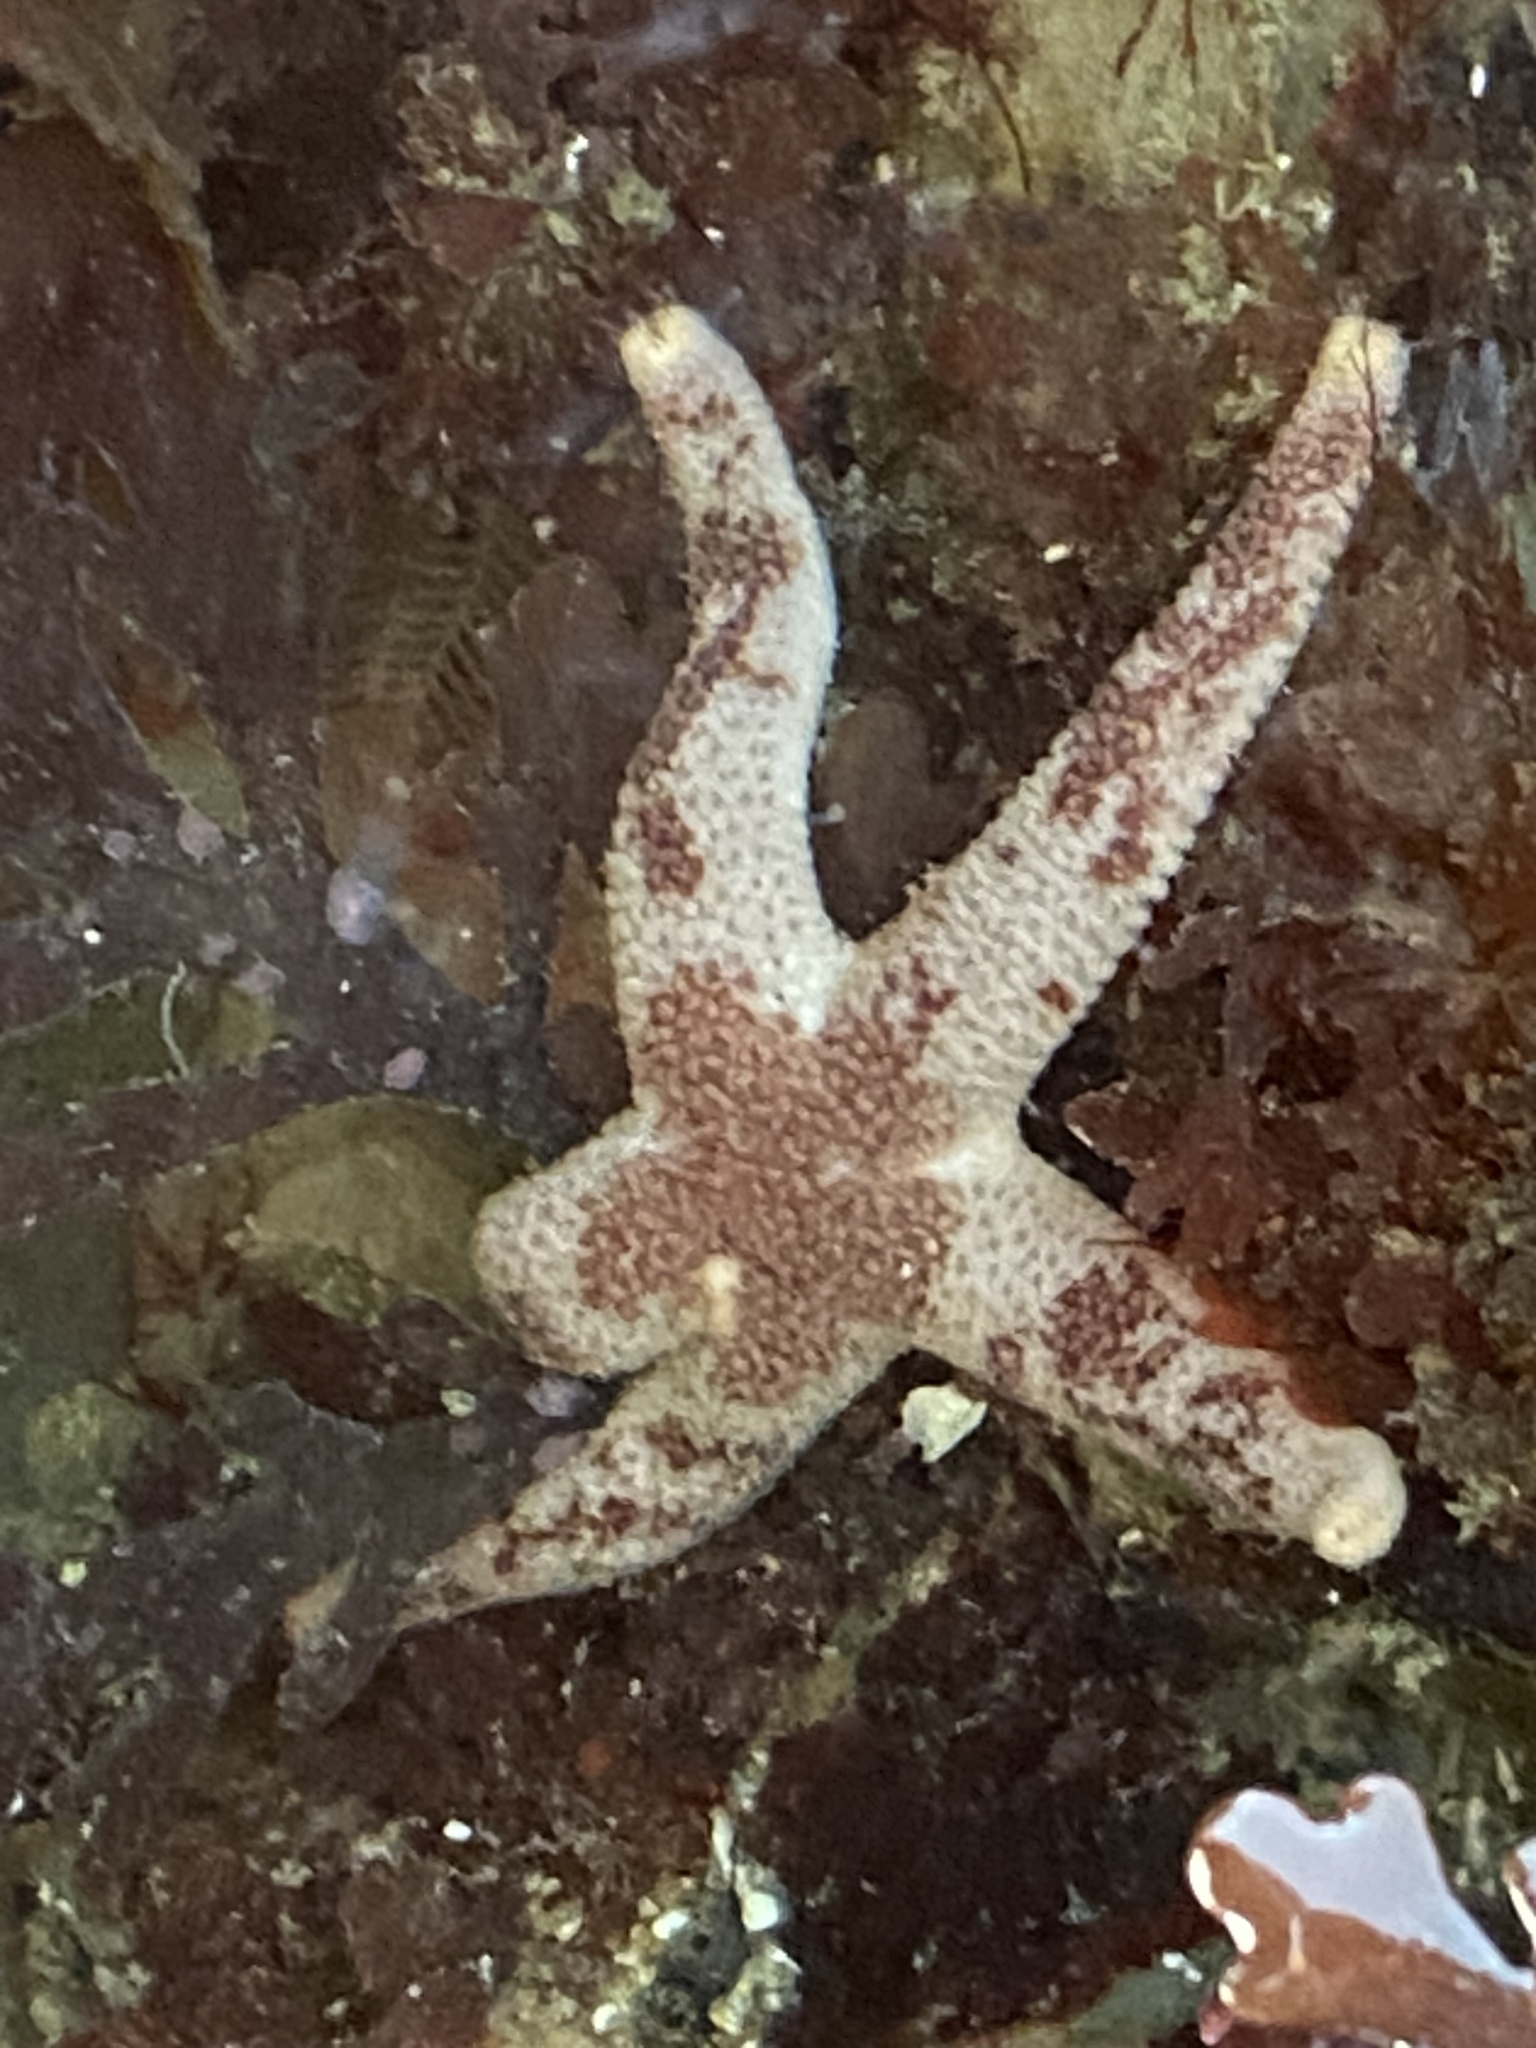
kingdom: Animalia
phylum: Echinodermata
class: Asteroidea
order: Spinulosida
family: Echinasteridae
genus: Henricia
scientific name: Henricia pumila
